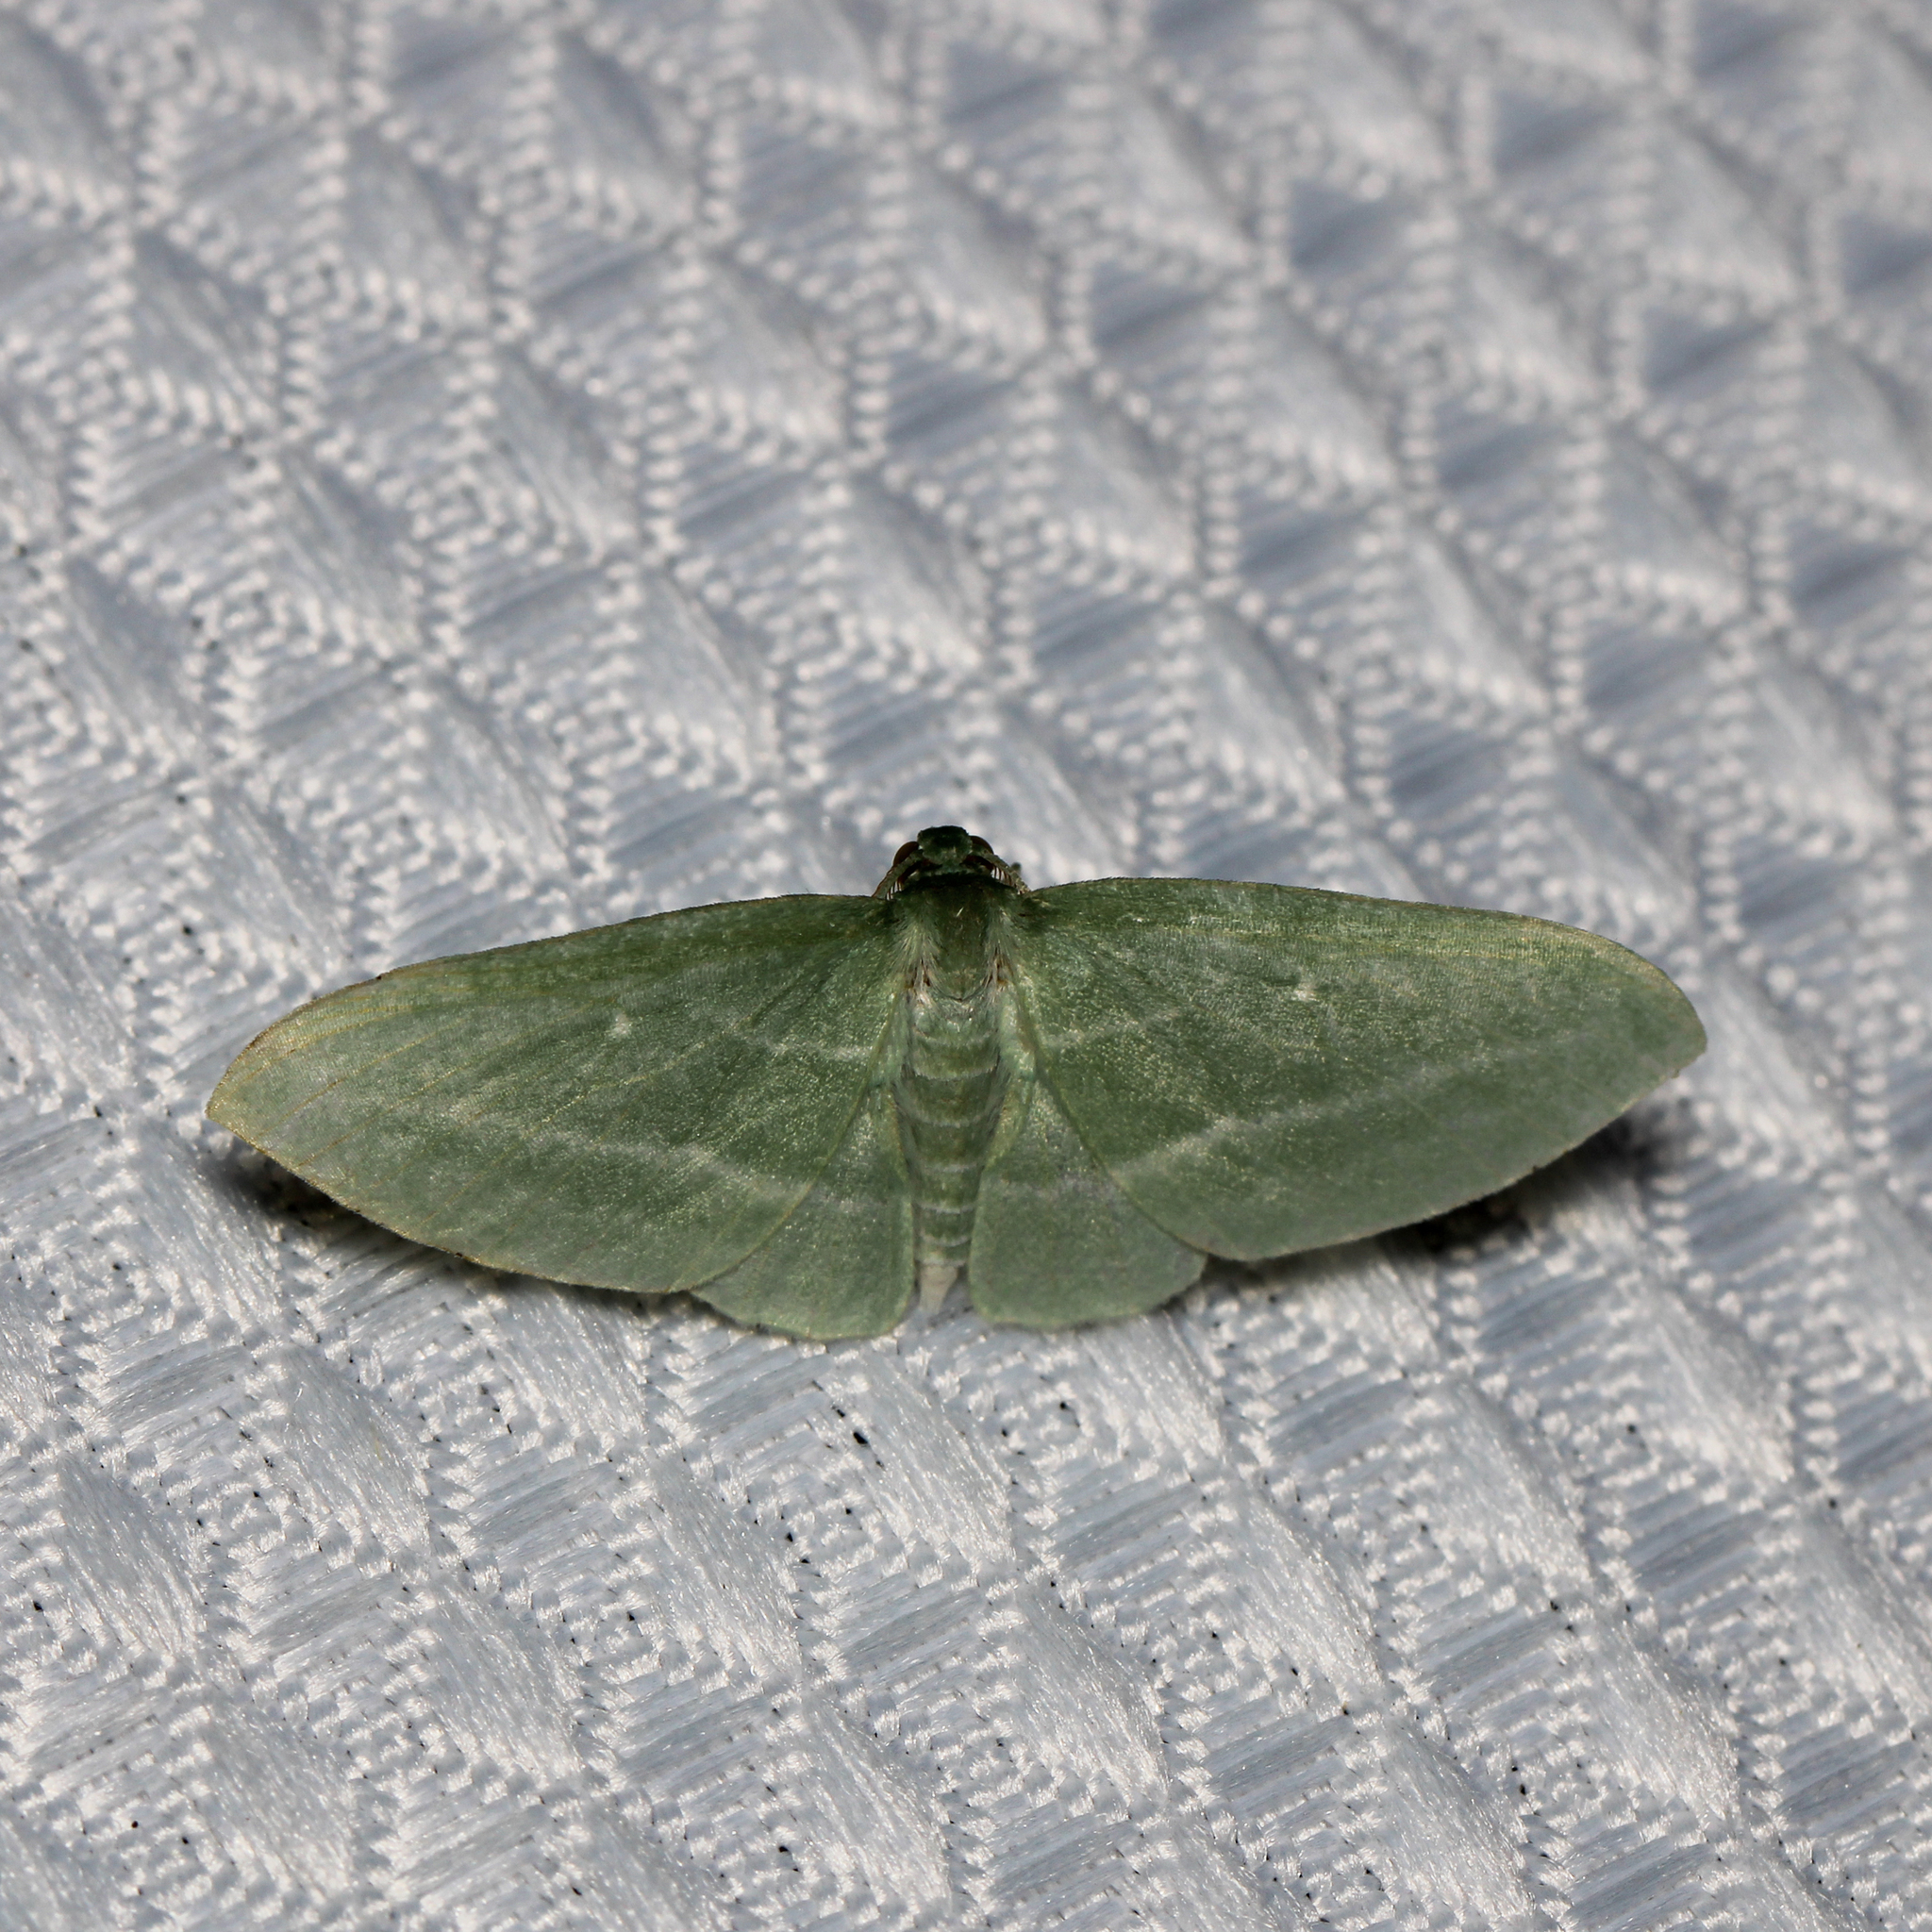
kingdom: Animalia
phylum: Arthropoda
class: Insecta
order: Lepidoptera
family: Geometridae
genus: Dyspteris
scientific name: Dyspteris abortivaria
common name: Bad-wing
